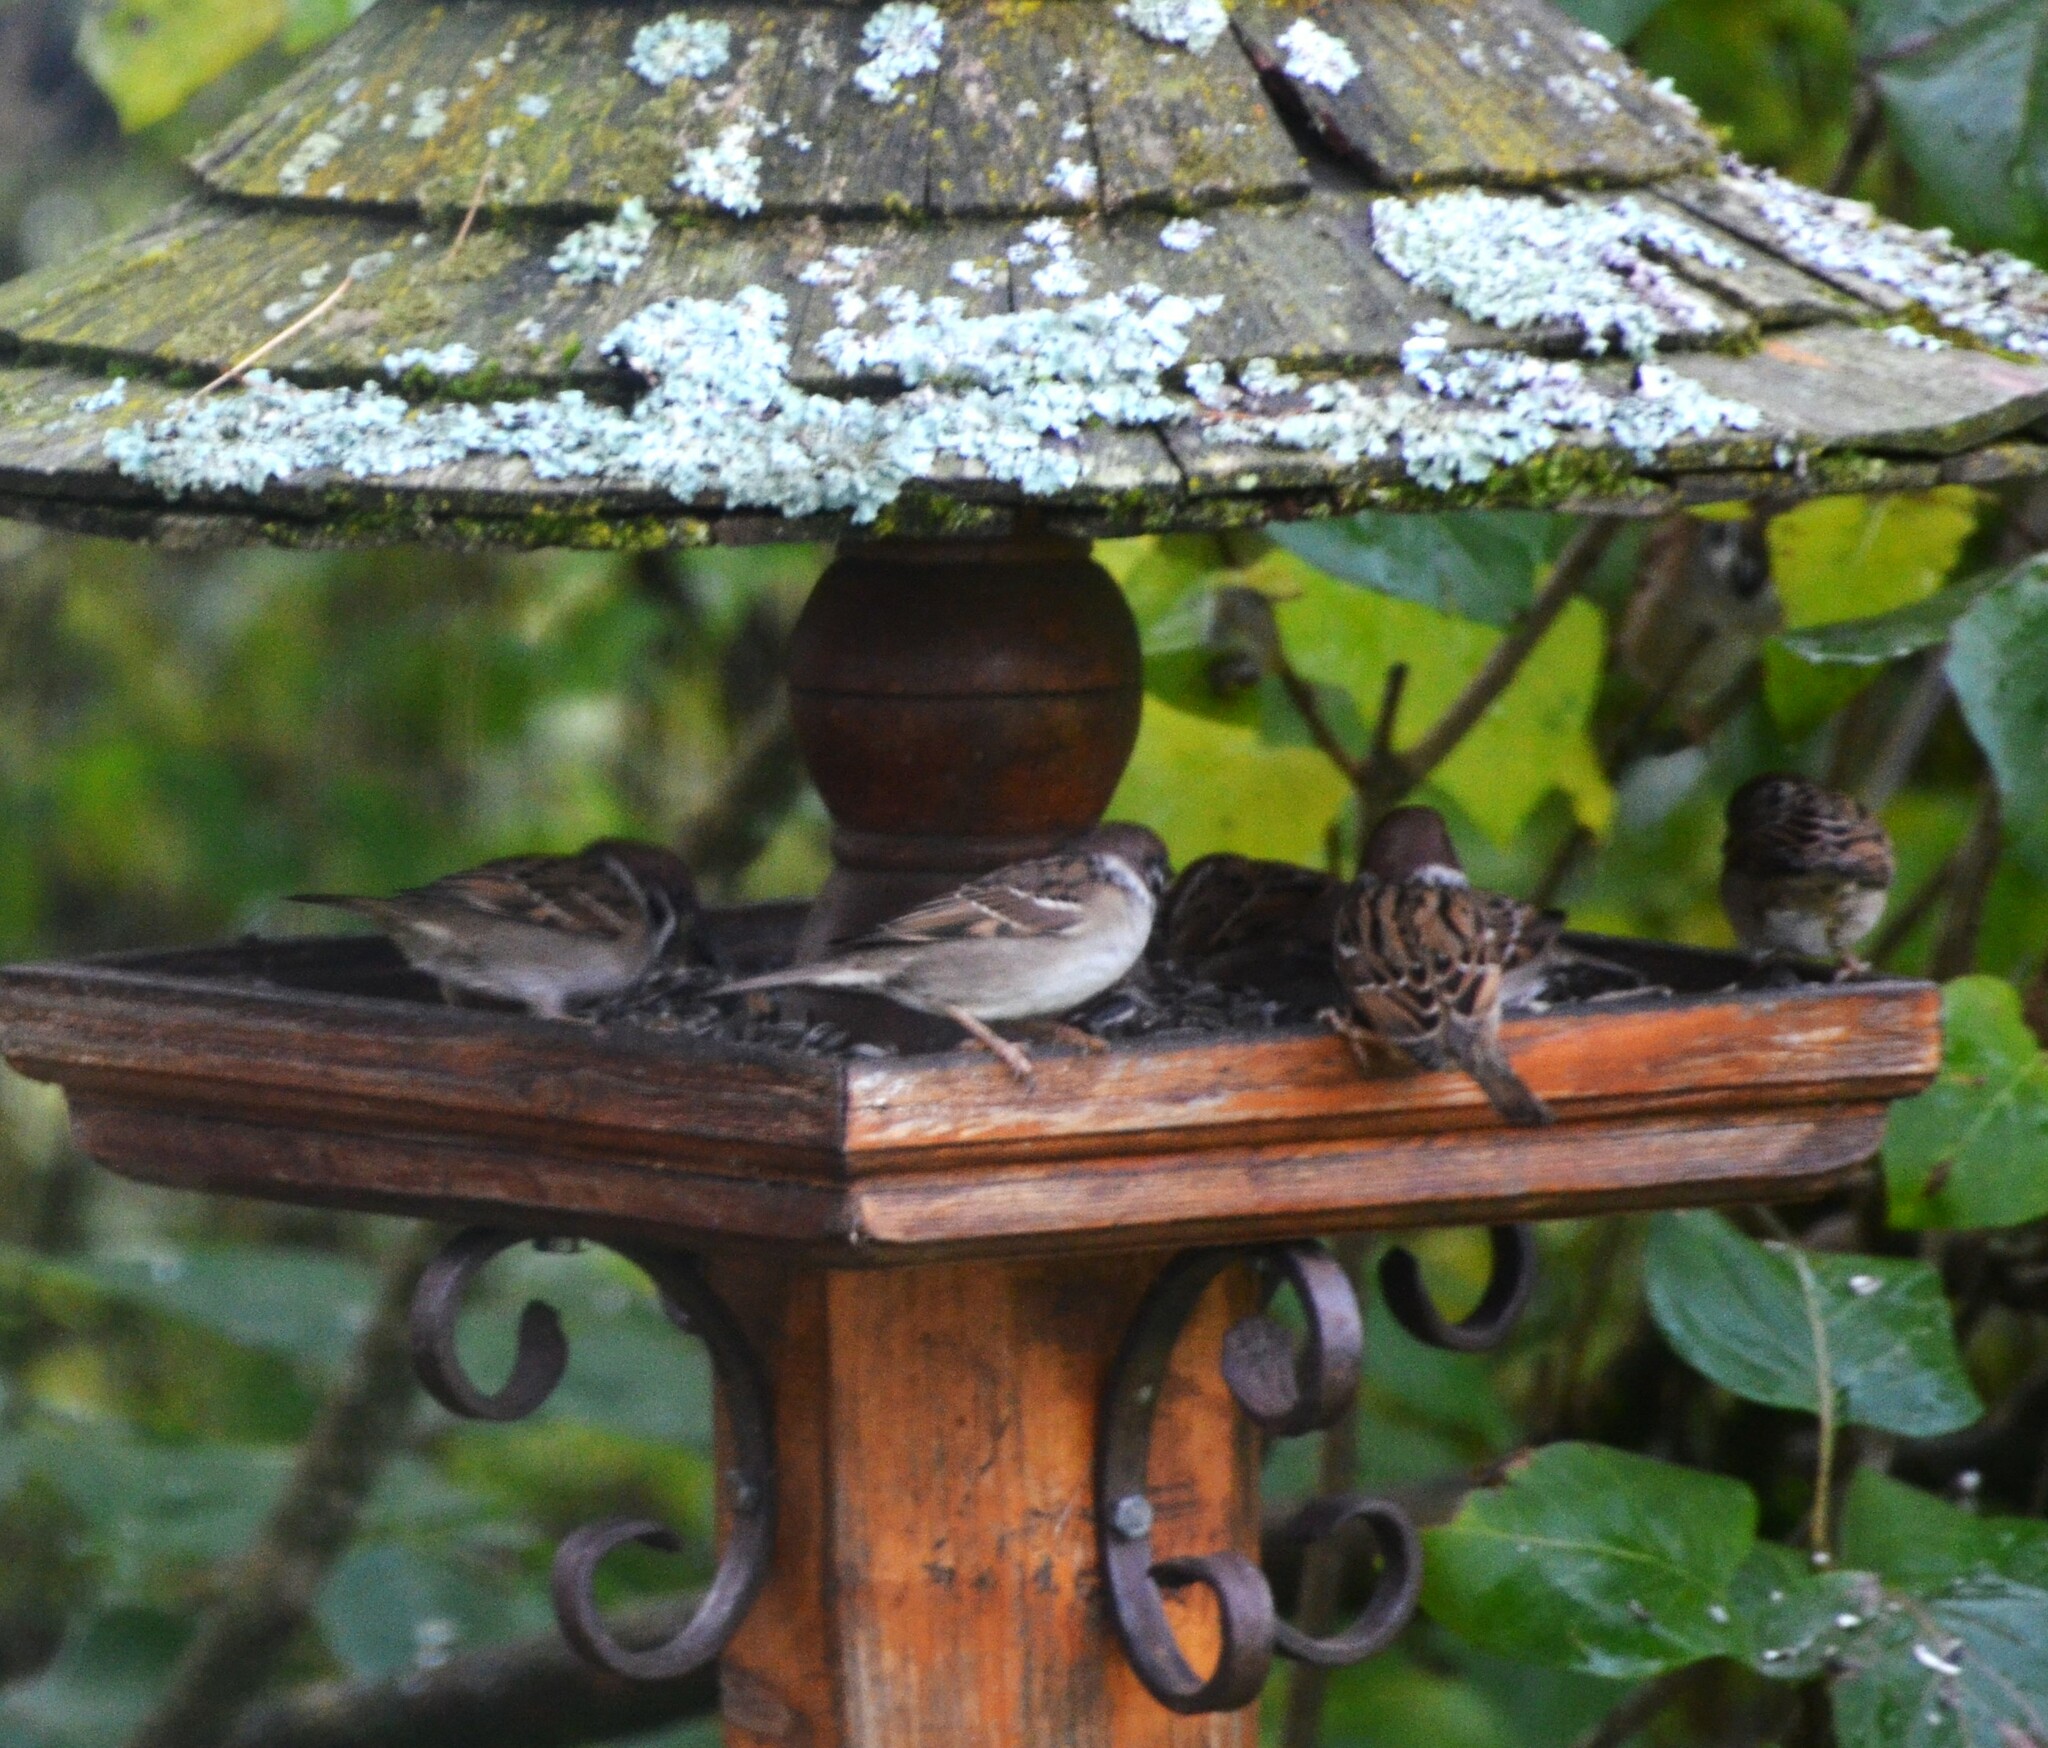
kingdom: Animalia
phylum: Chordata
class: Aves
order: Passeriformes
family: Passeridae
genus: Passer
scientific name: Passer montanus
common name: Eurasian tree sparrow
